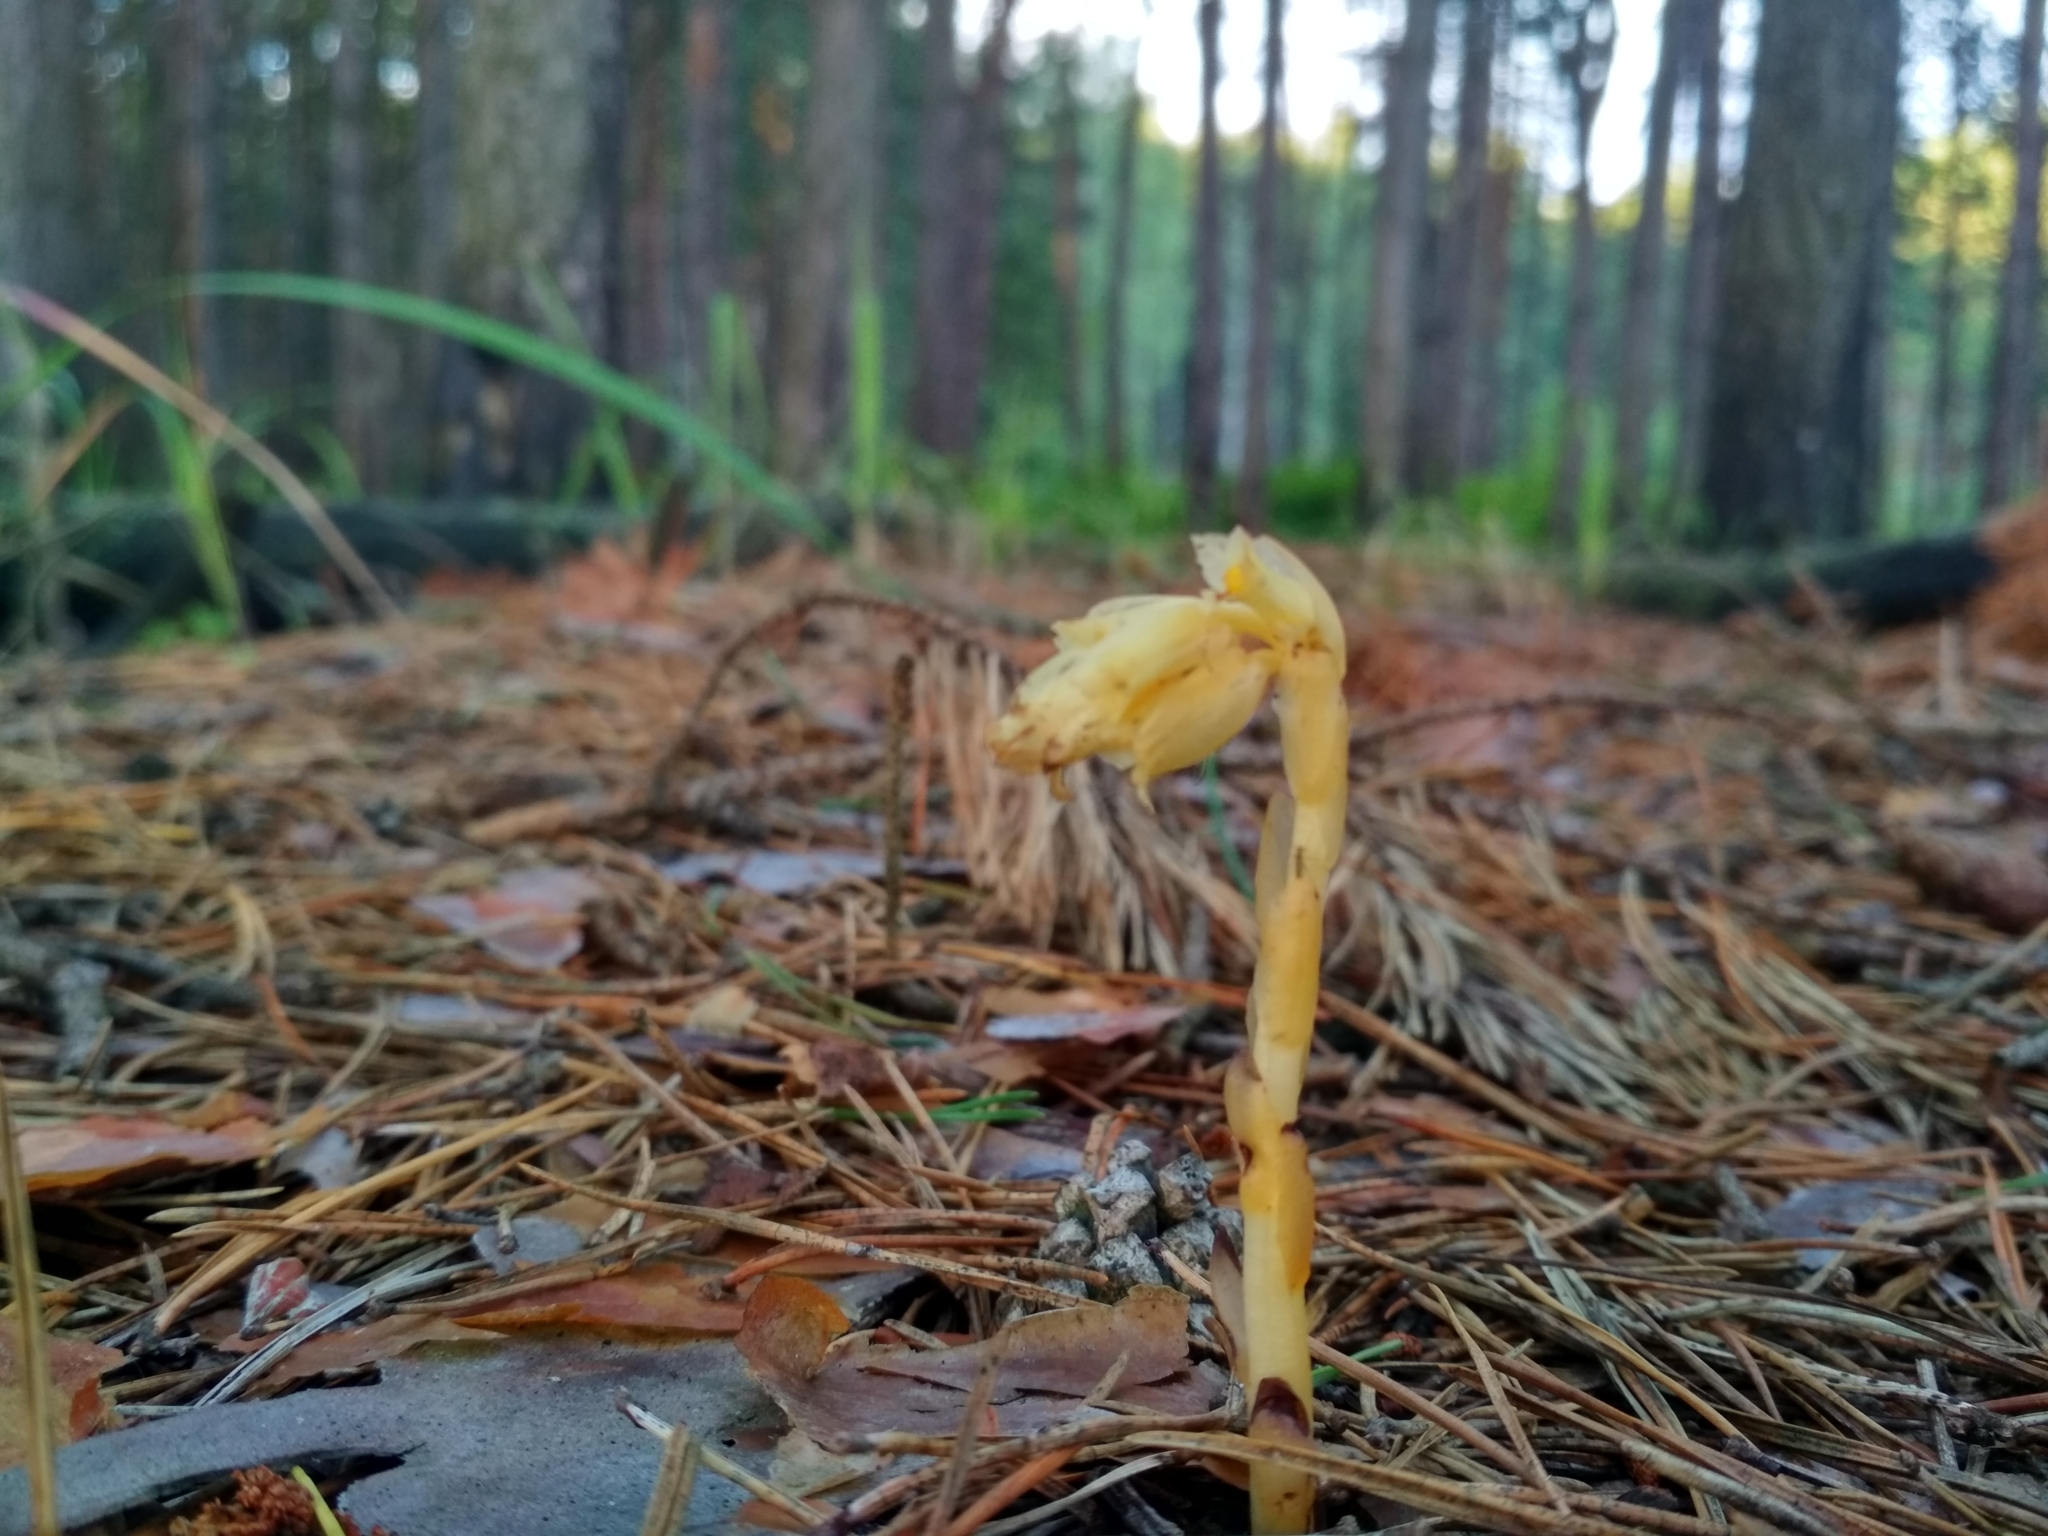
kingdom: Plantae
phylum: Tracheophyta
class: Magnoliopsida
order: Ericales
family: Ericaceae
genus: Hypopitys
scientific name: Hypopitys monotropa
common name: Yellow bird's-nest
